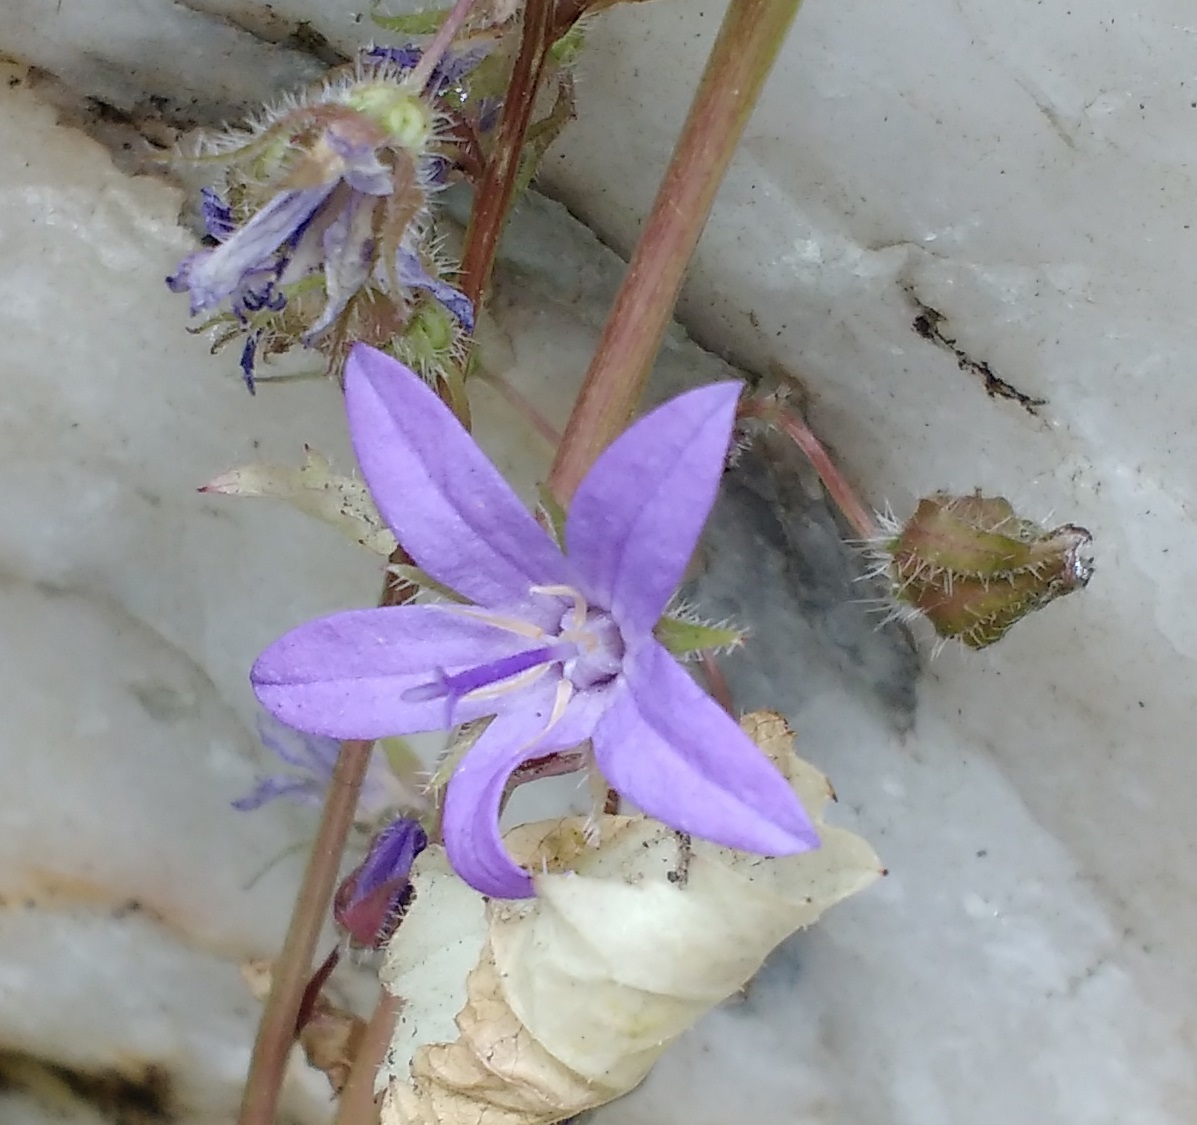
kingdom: Plantae
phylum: Tracheophyta
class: Magnoliopsida
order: Asterales
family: Campanulaceae
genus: Campanula
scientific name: Campanula poscharskyana
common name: Trailing bellflower
